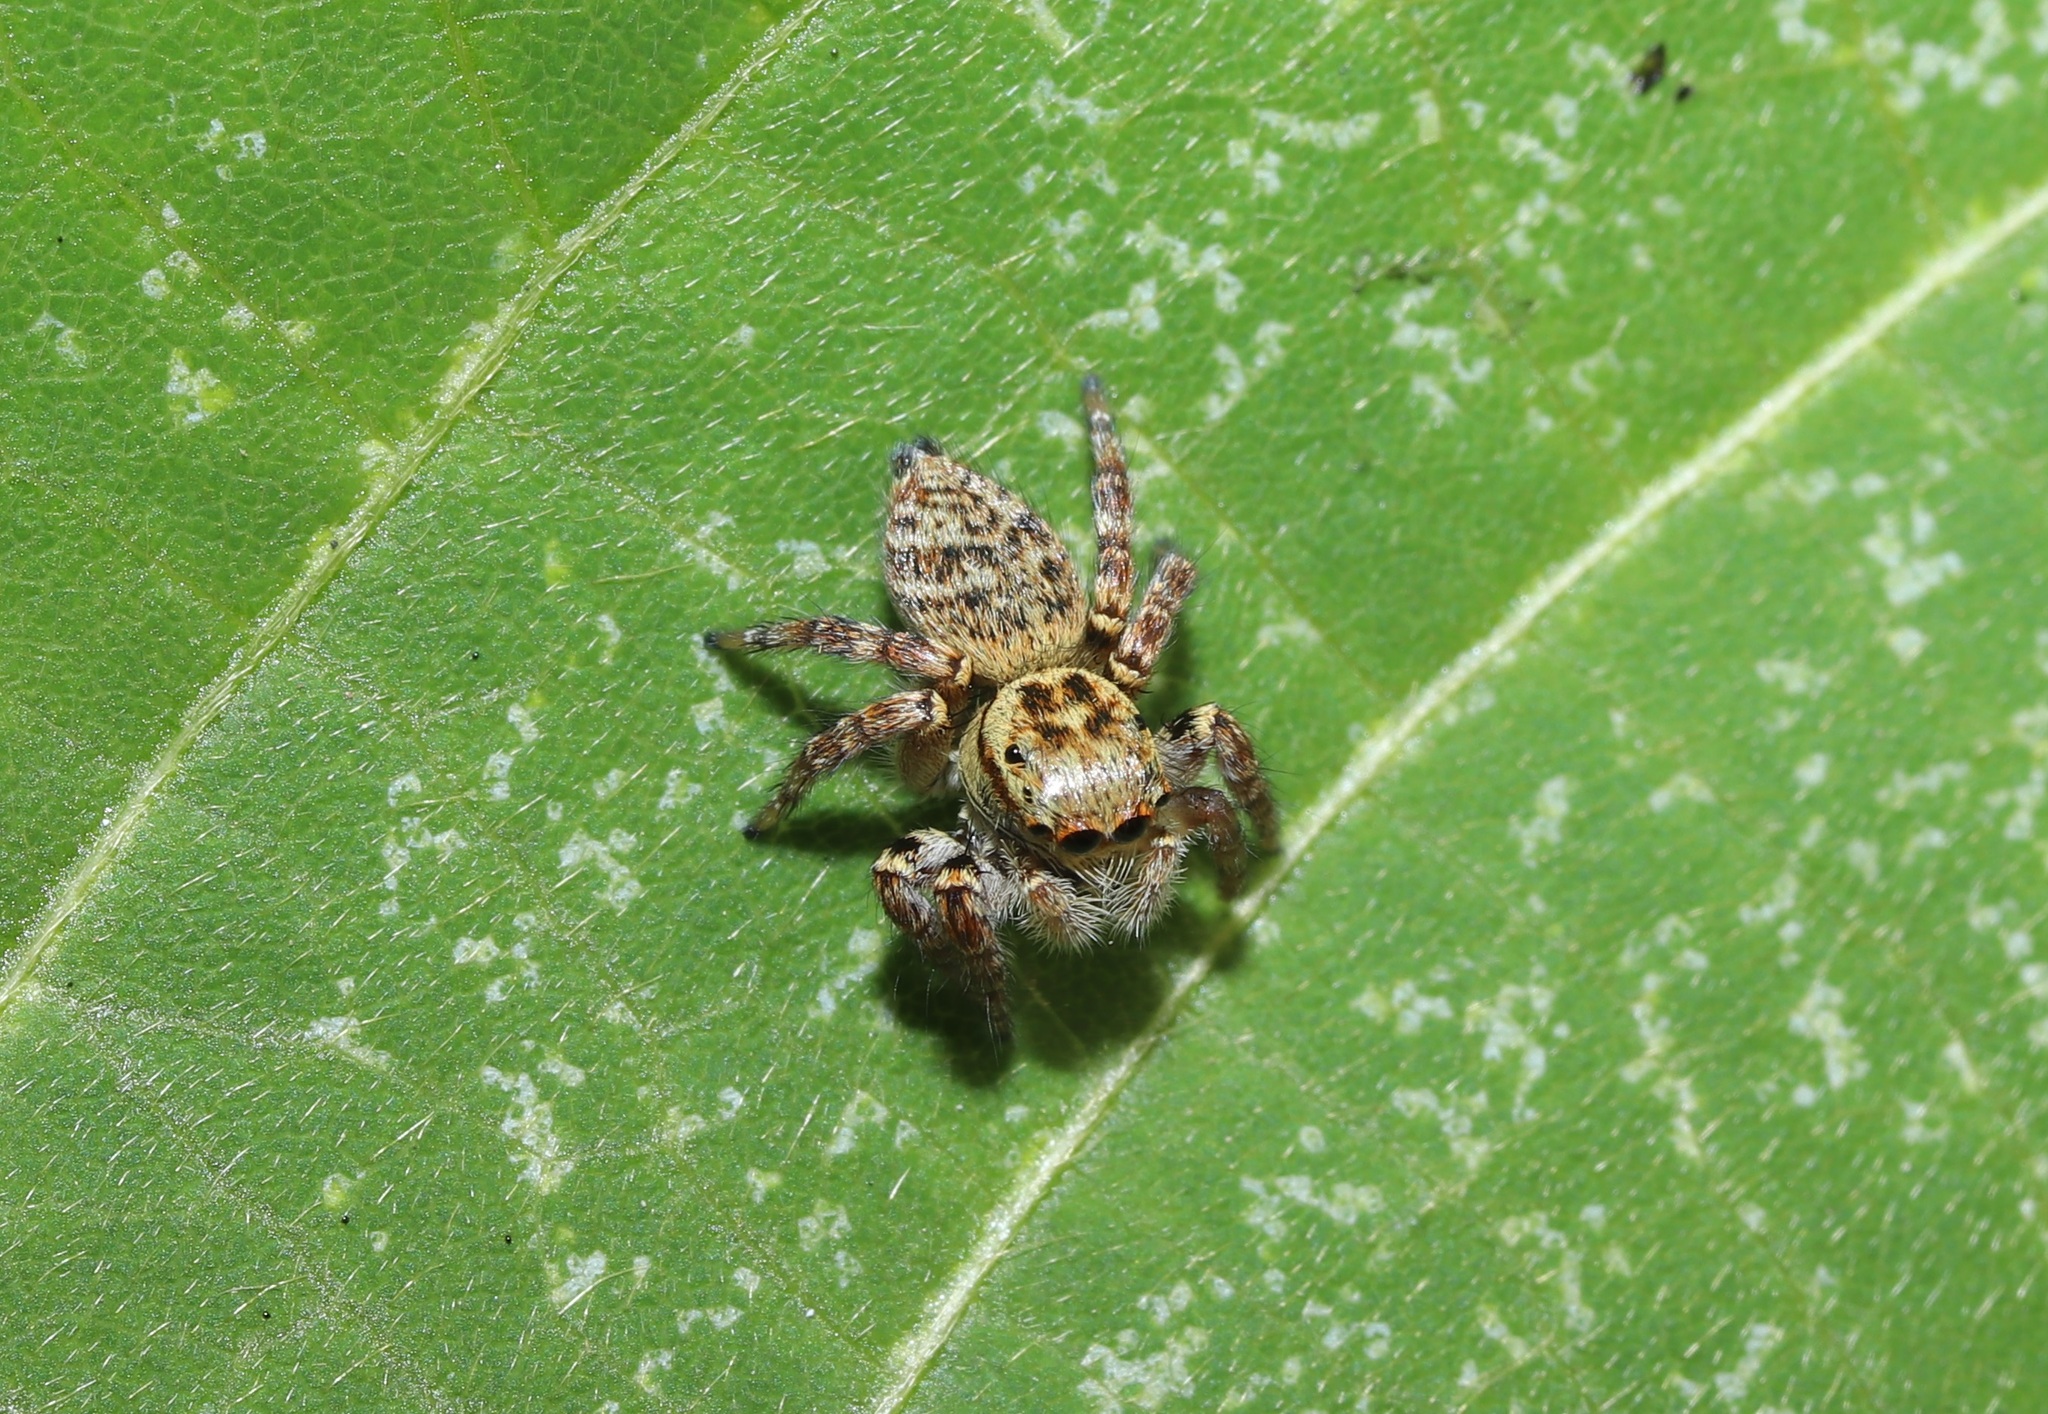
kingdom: Animalia
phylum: Arthropoda
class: Arachnida
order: Araneae
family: Salticidae
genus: Carrhotus
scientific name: Carrhotus xanthogramma
